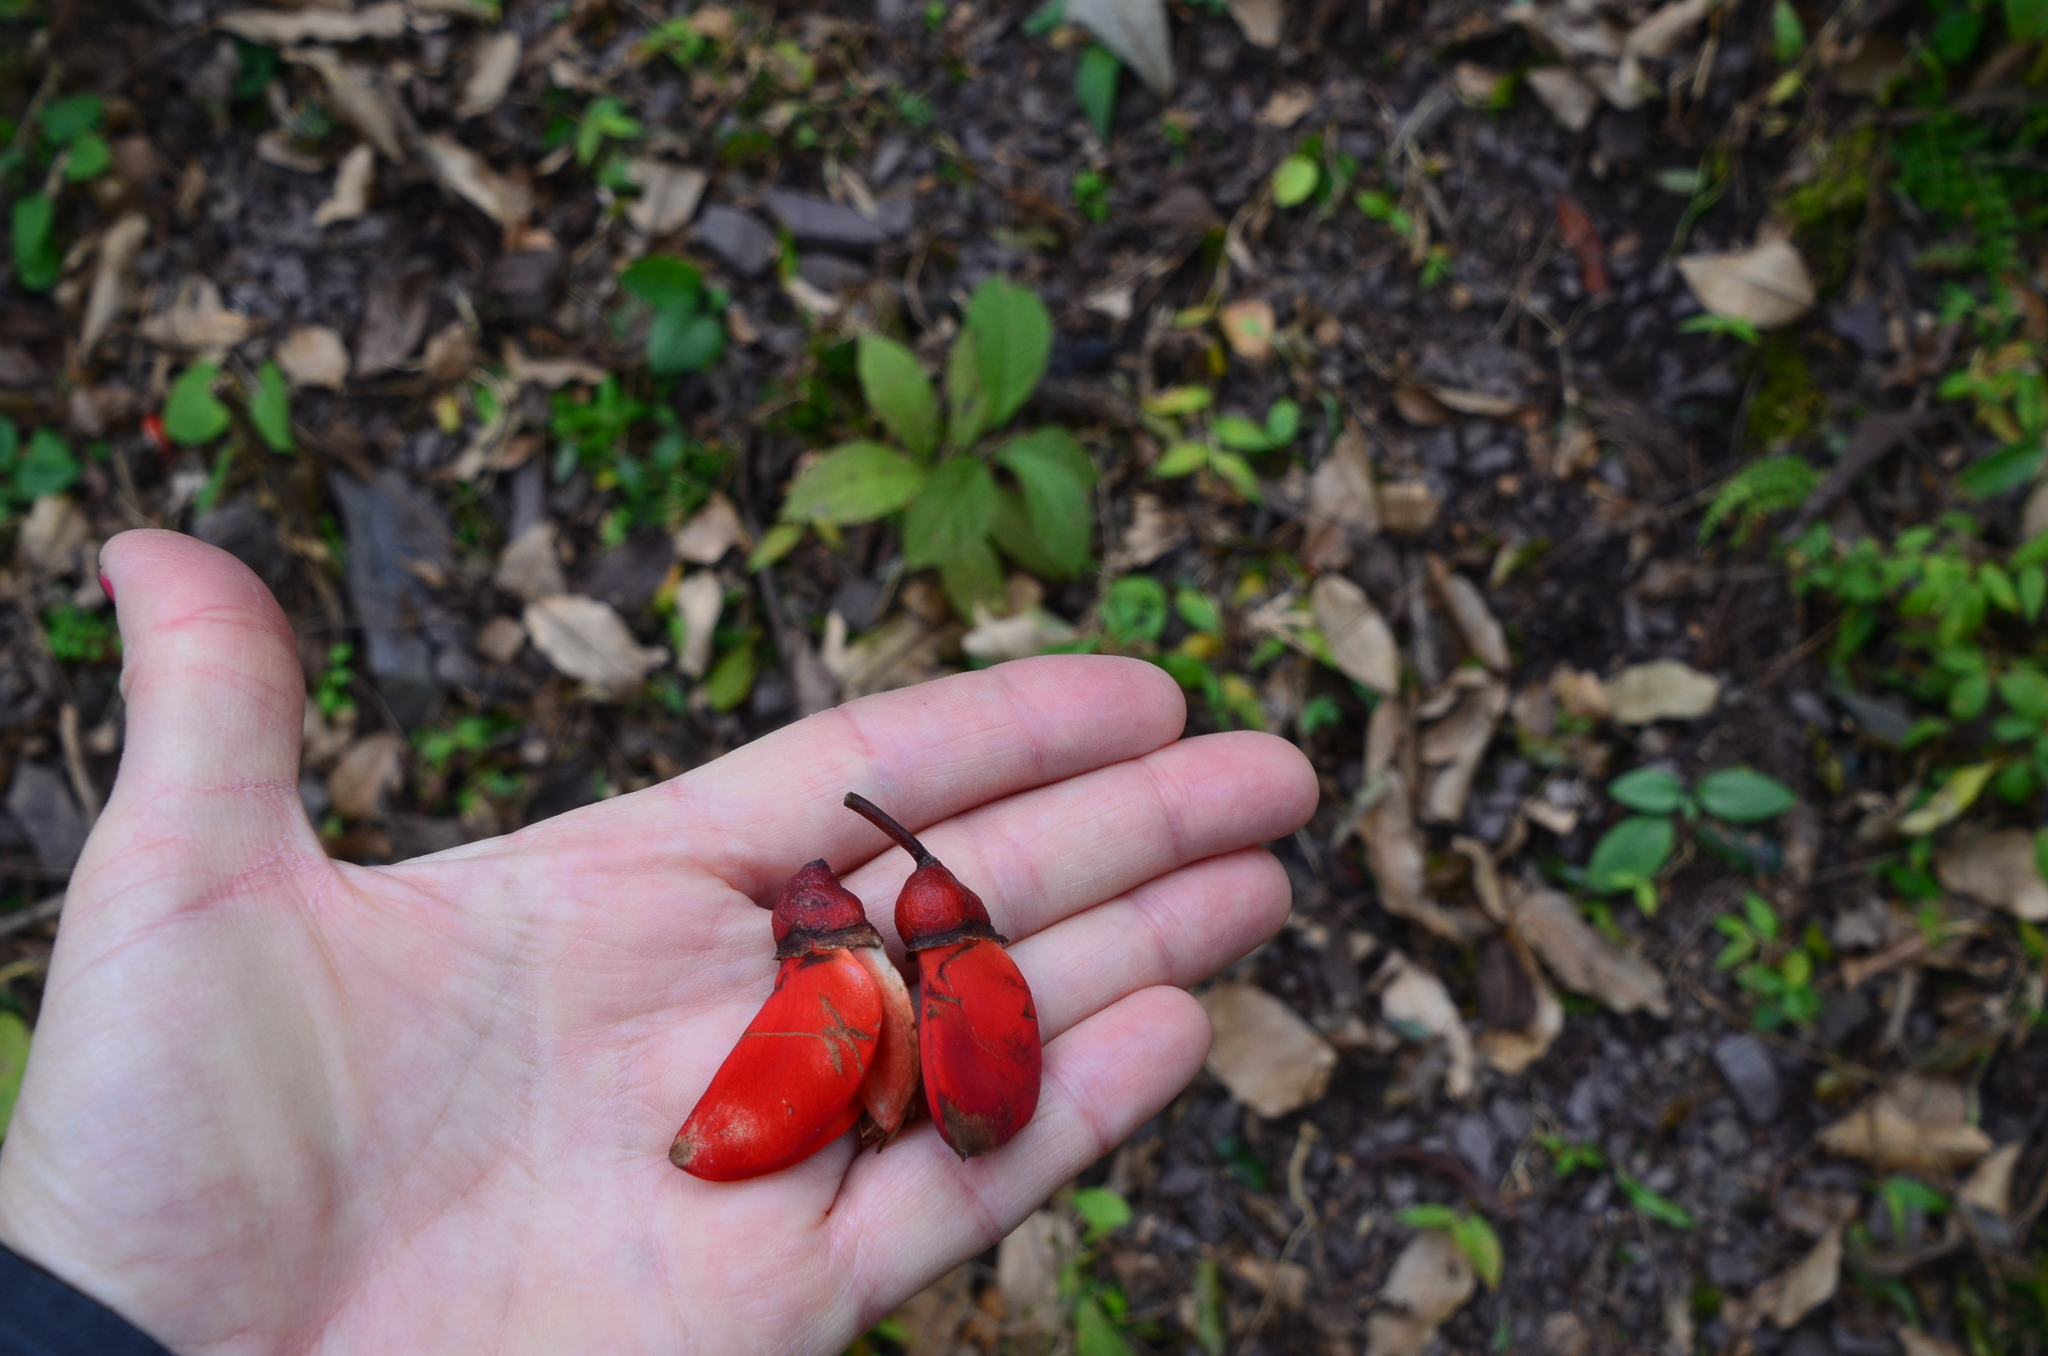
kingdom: Plantae
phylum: Tracheophyta
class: Magnoliopsida
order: Fabales
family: Fabaceae
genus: Erythrina
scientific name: Erythrina falcata
